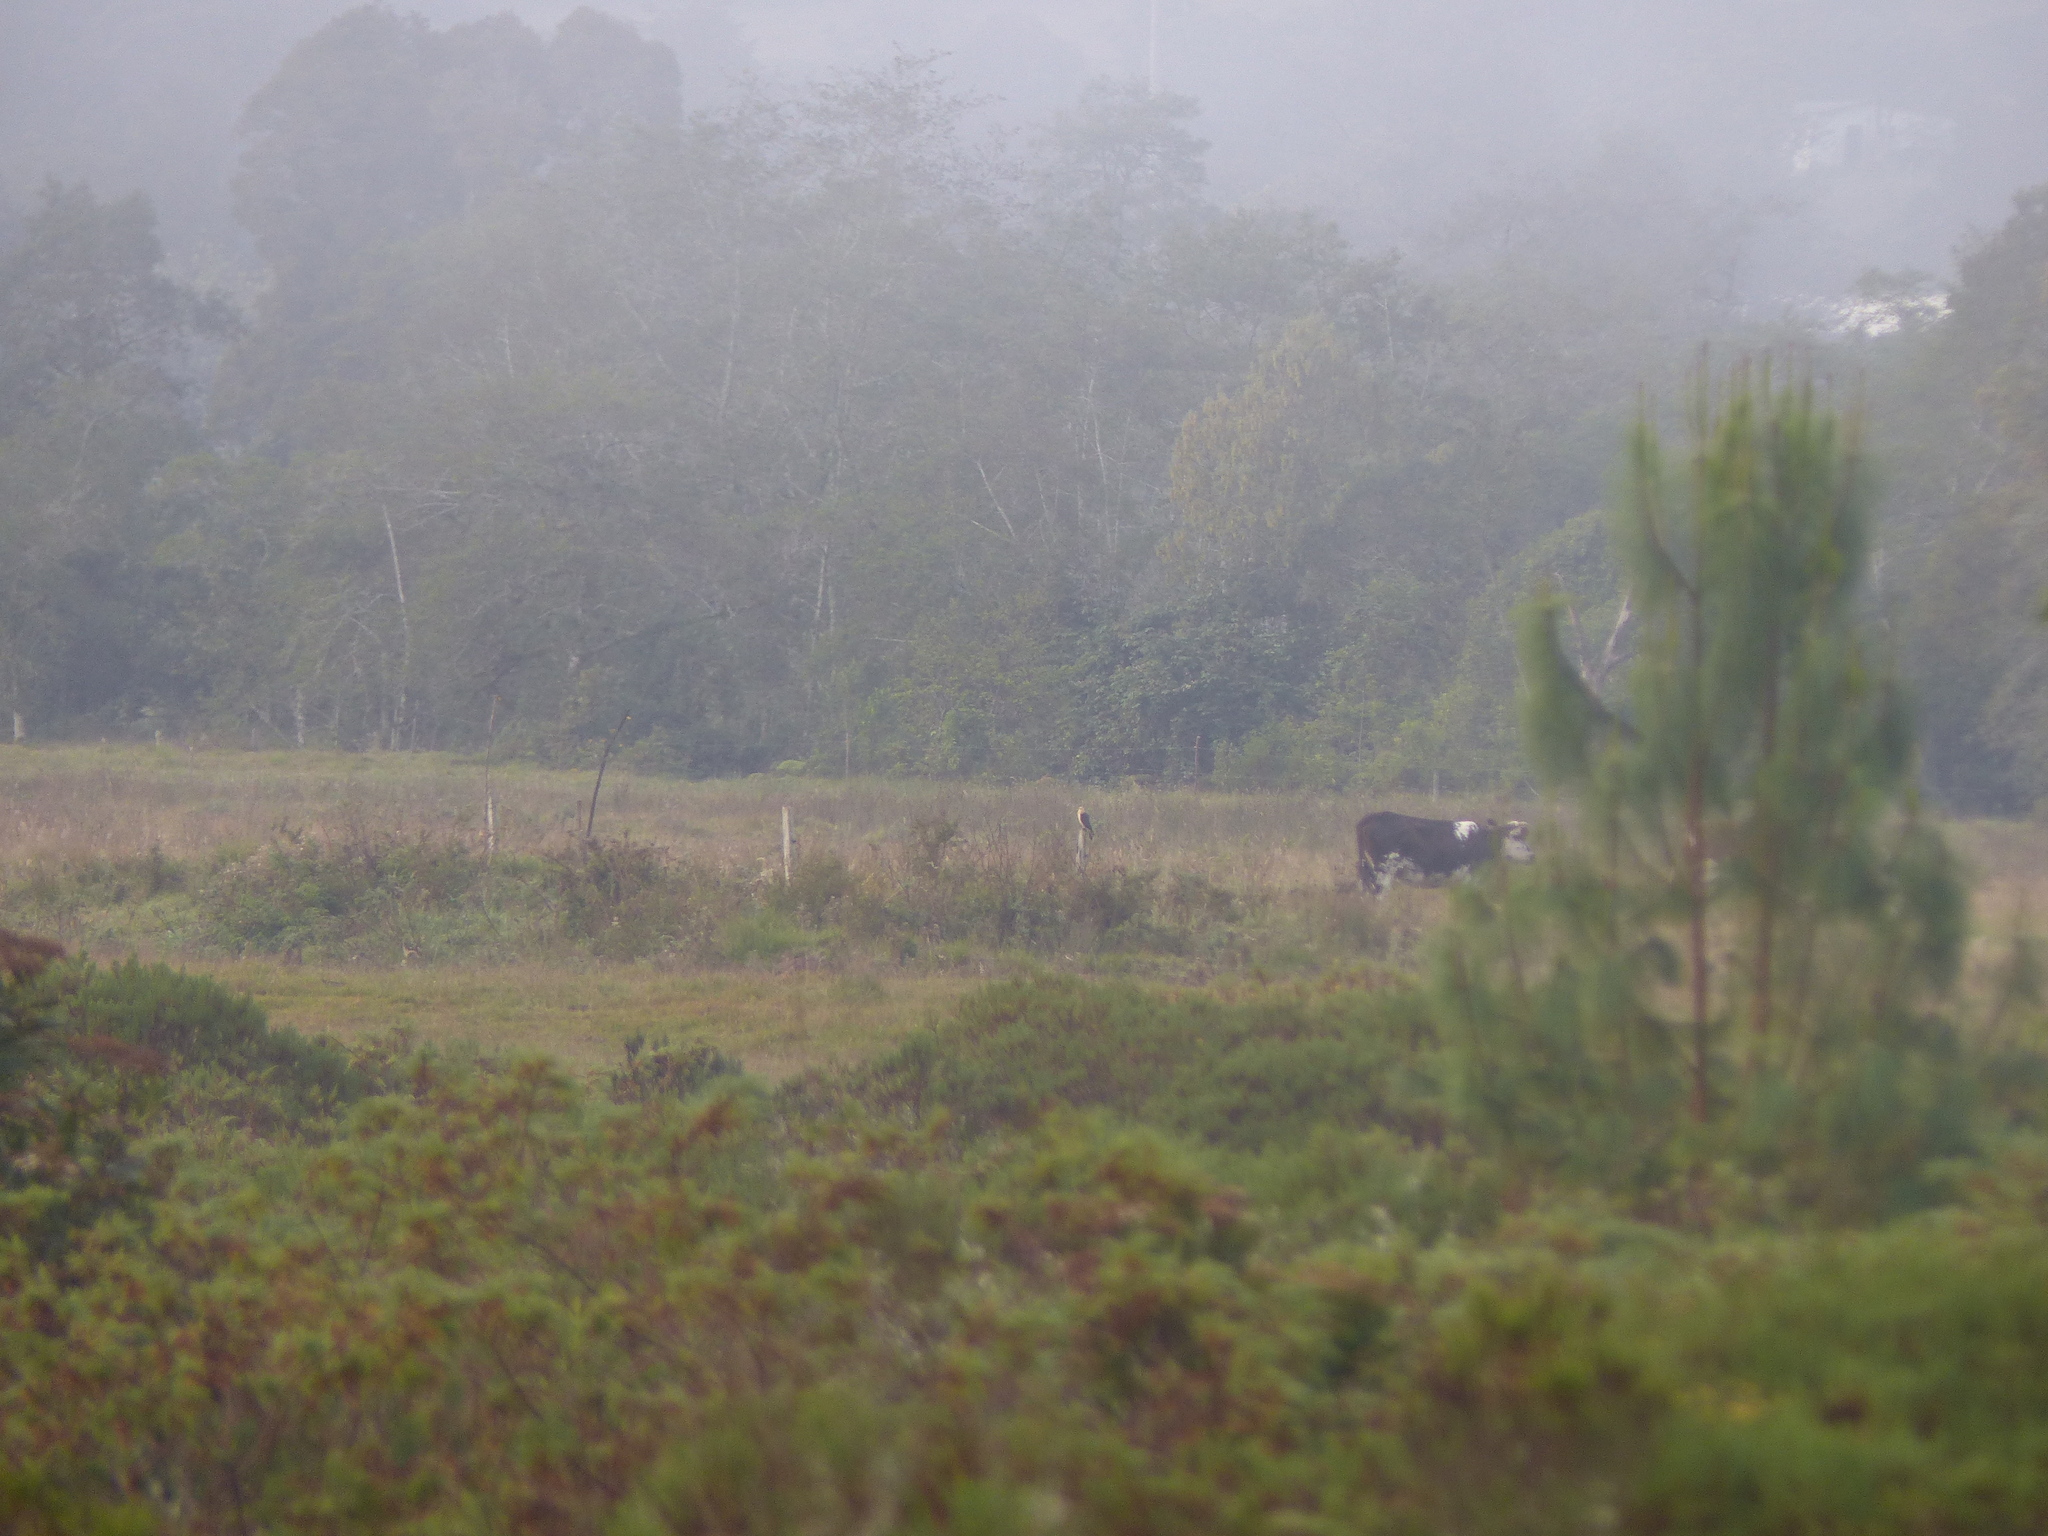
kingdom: Animalia
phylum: Chordata
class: Aves
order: Falconiformes
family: Falconidae
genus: Daptrius
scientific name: Daptrius
